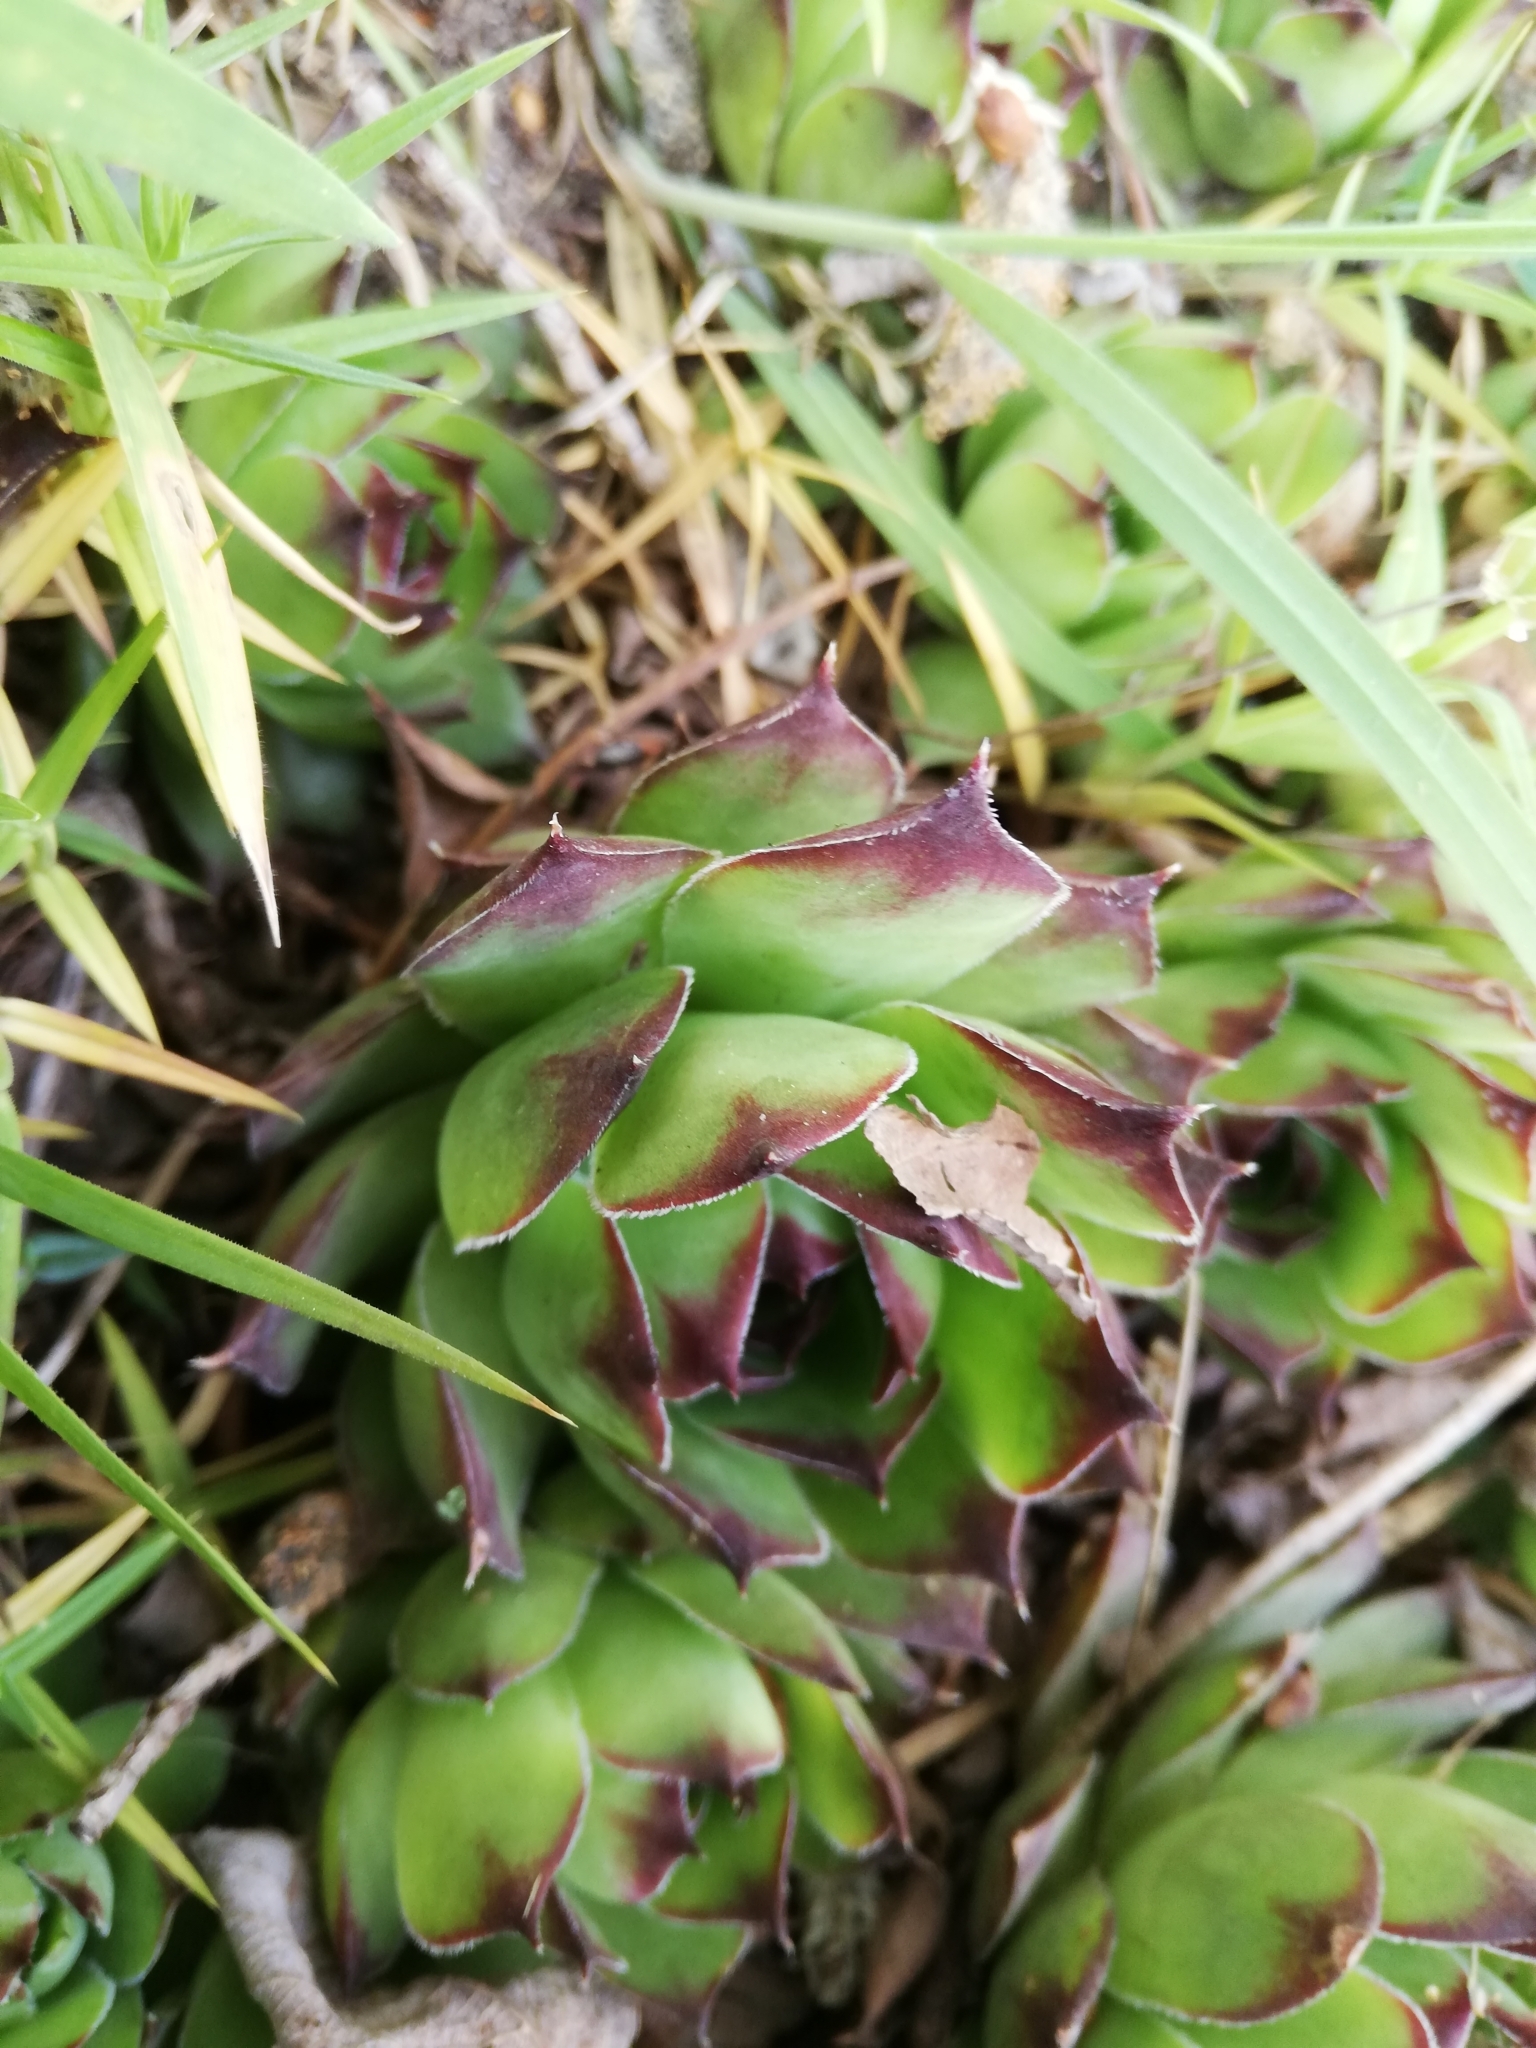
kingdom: Plantae
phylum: Tracheophyta
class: Magnoliopsida
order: Saxifragales
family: Crassulaceae
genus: Sempervivum
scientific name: Sempervivum tectorum
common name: House-leek
